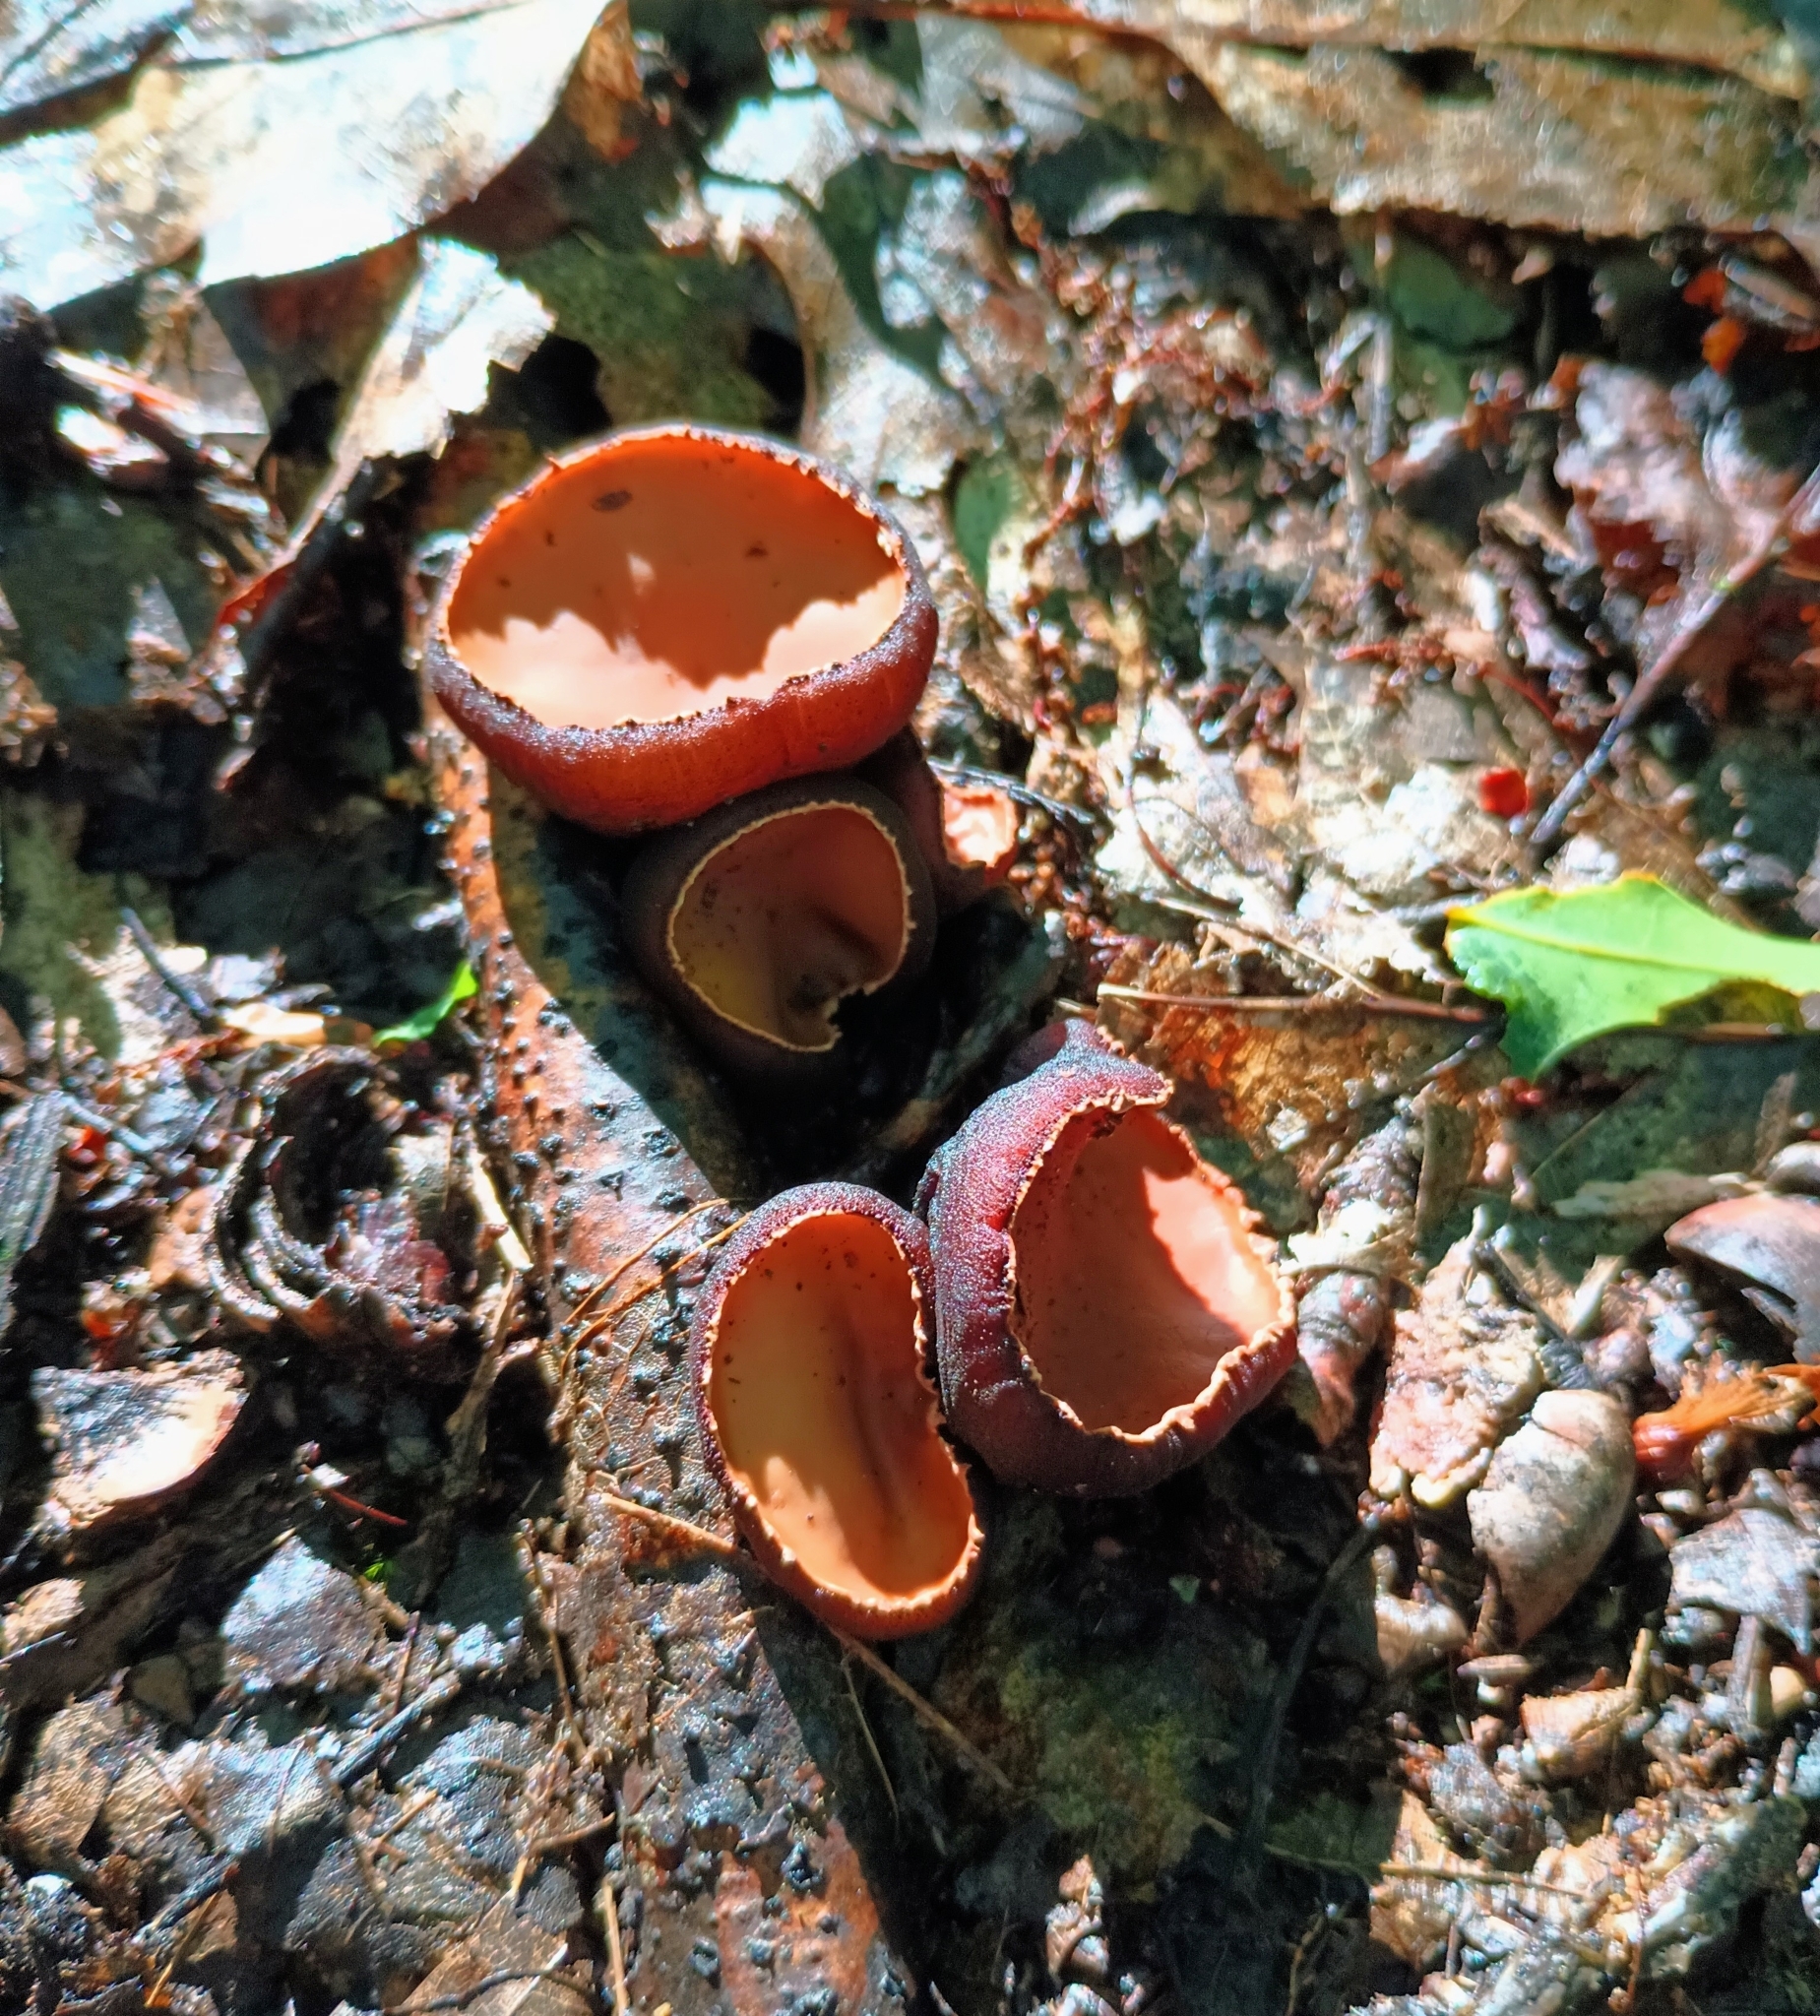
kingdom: Fungi
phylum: Ascomycota
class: Pezizomycetes
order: Pezizales
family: Sarcosomataceae
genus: Galiella
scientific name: Galiella rufa
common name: Hairy rubber cup
